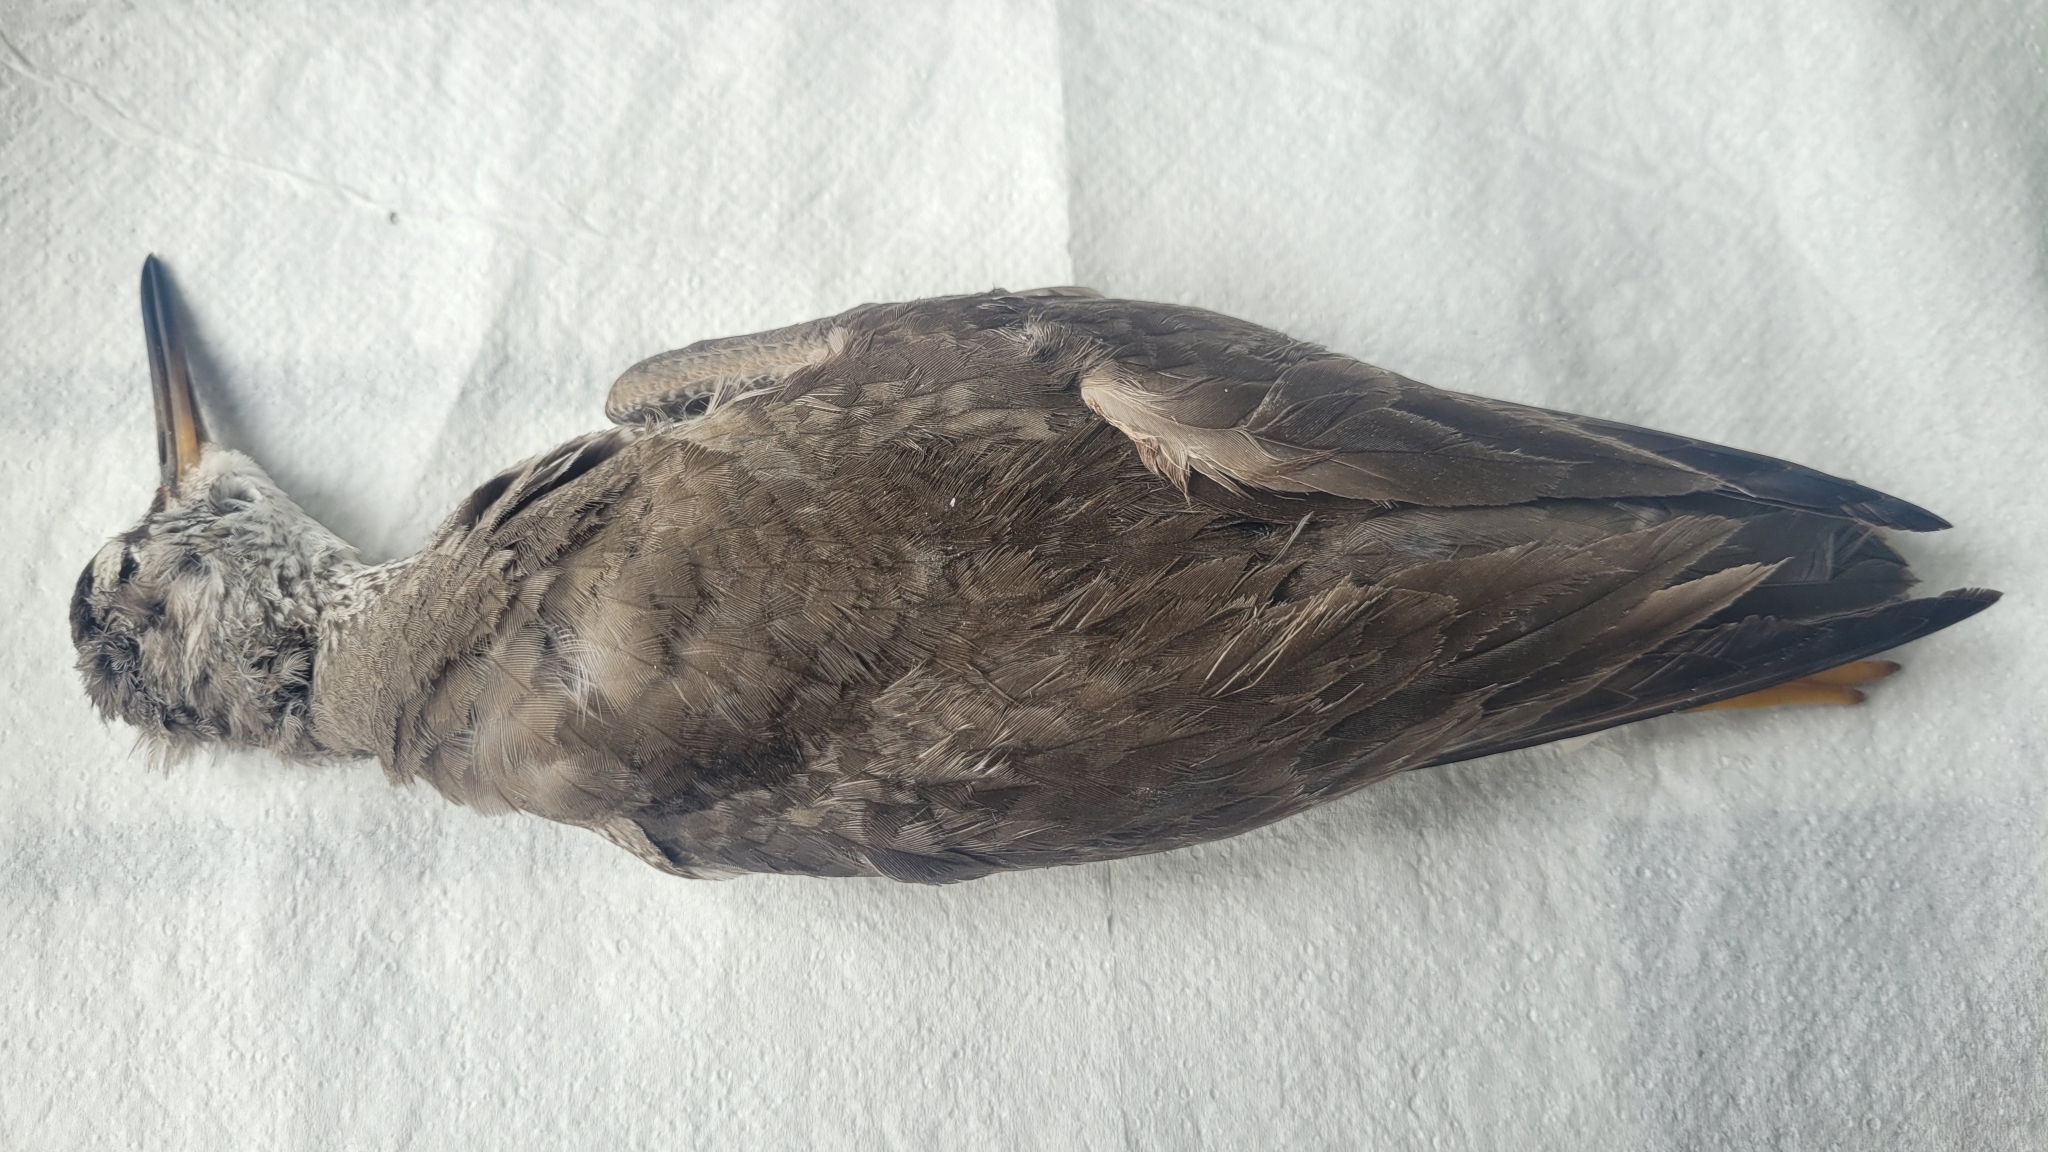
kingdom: Animalia
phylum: Chordata
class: Aves
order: Charadriiformes
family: Scolopacidae
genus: Tringa
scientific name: Tringa brevipes
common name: Grey-tailed tattler
